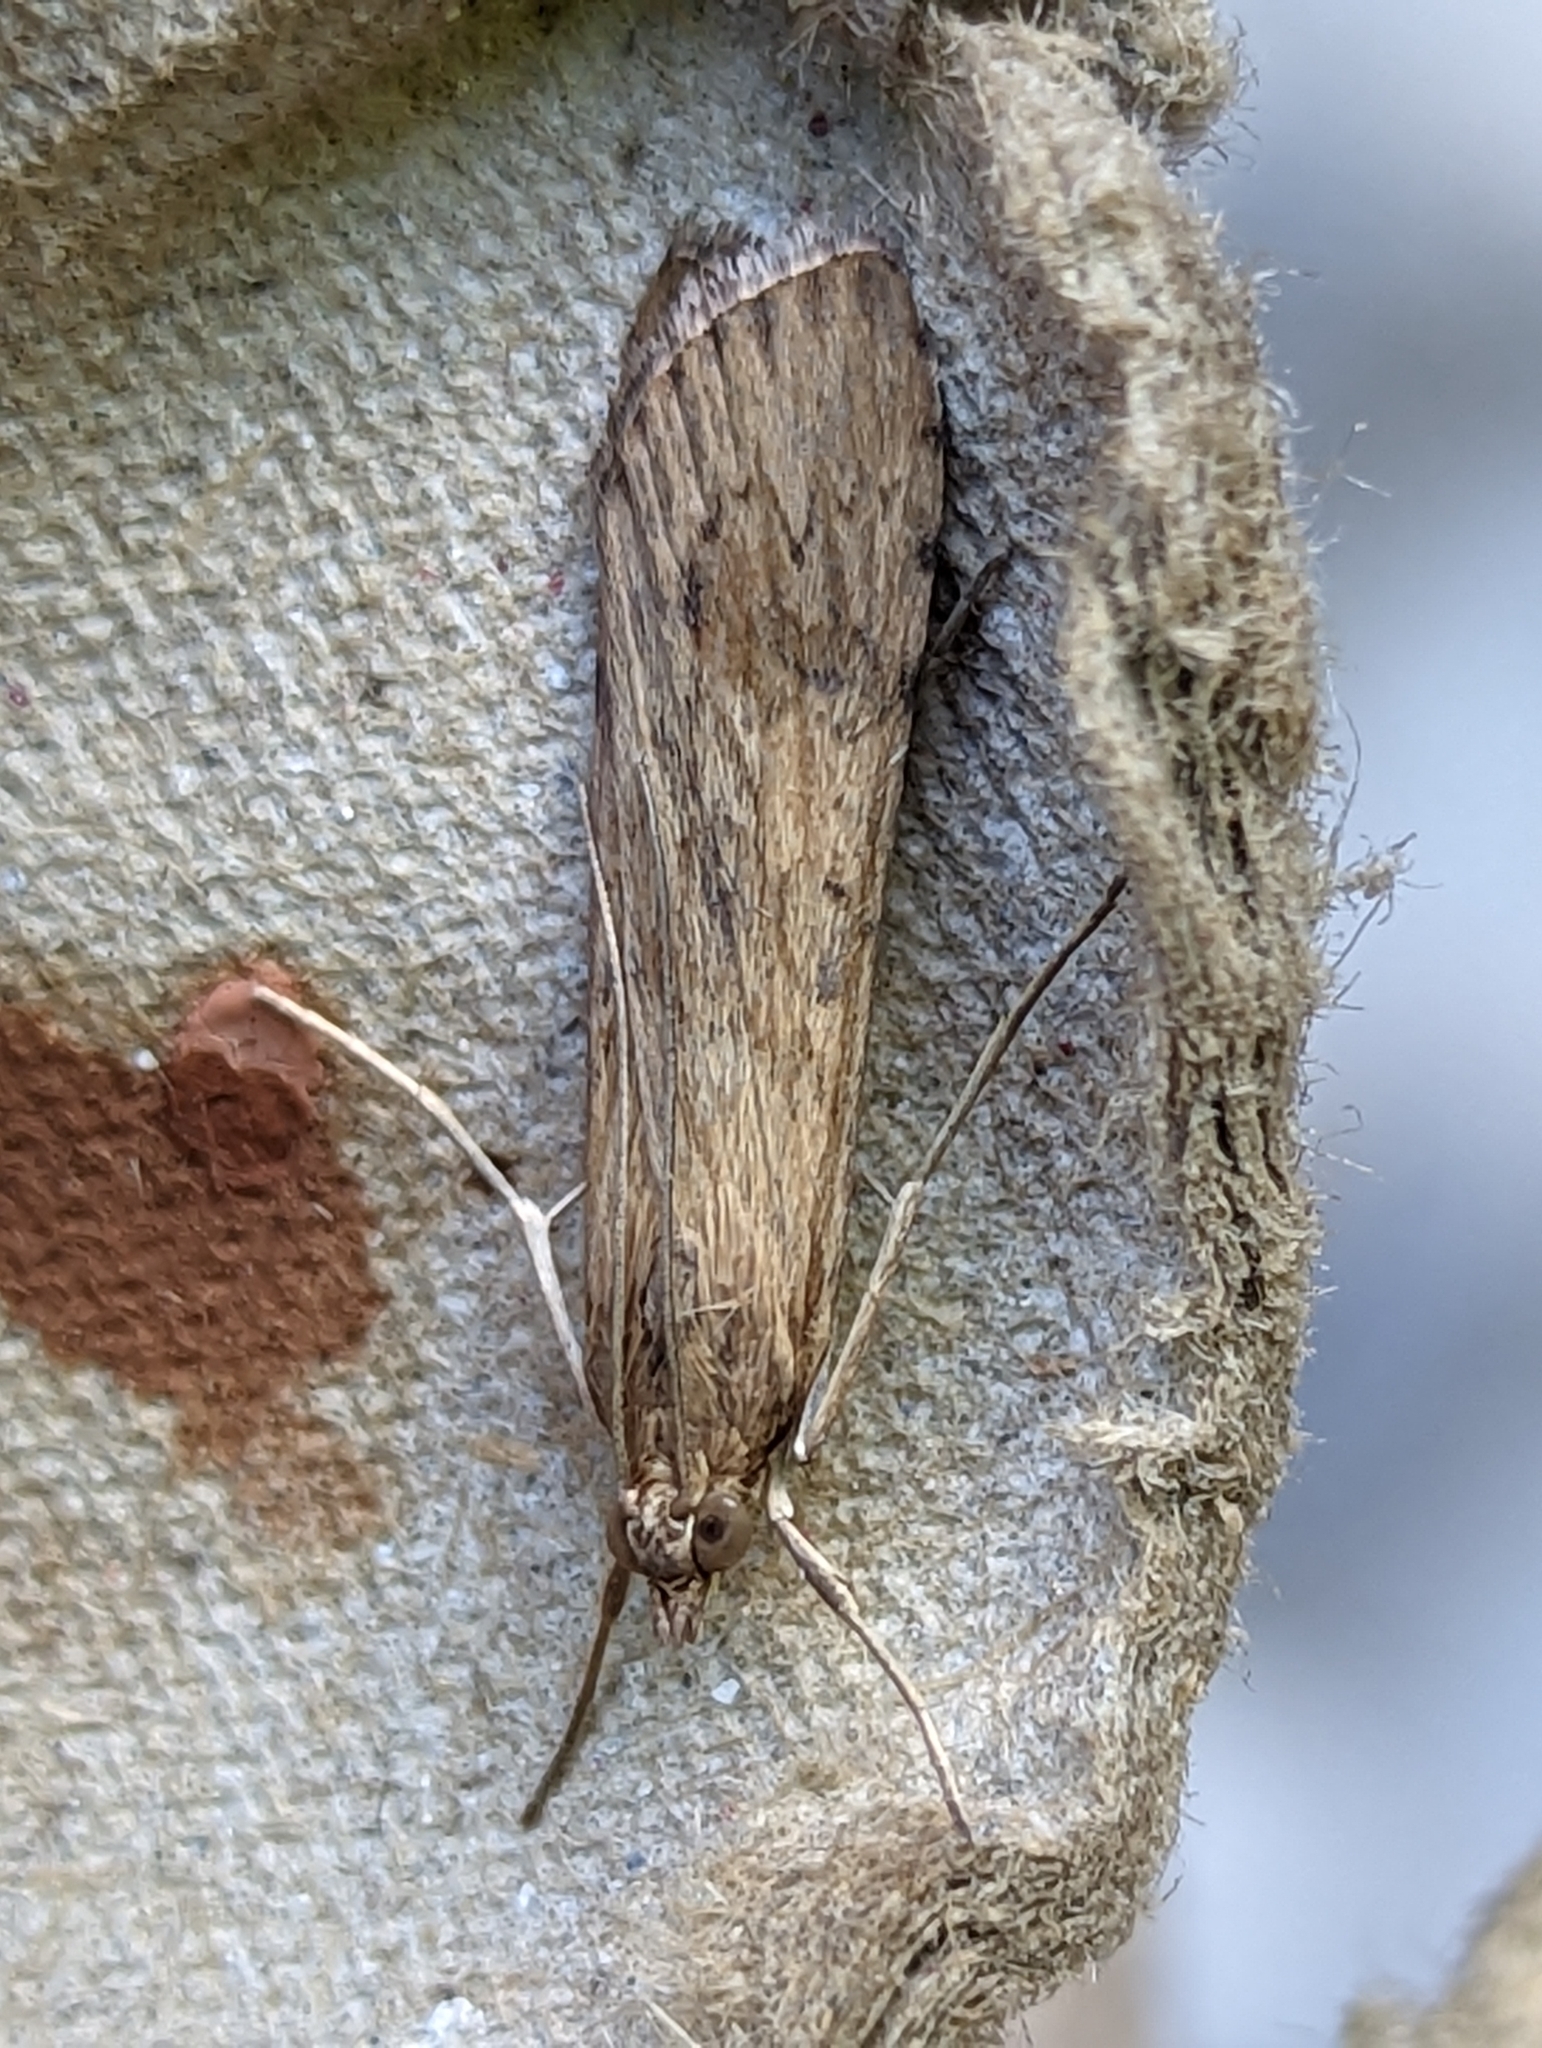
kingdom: Animalia
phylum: Arthropoda
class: Insecta
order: Lepidoptera
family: Crambidae
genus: Nomophila
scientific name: Nomophila noctuella
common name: Rush veneer
